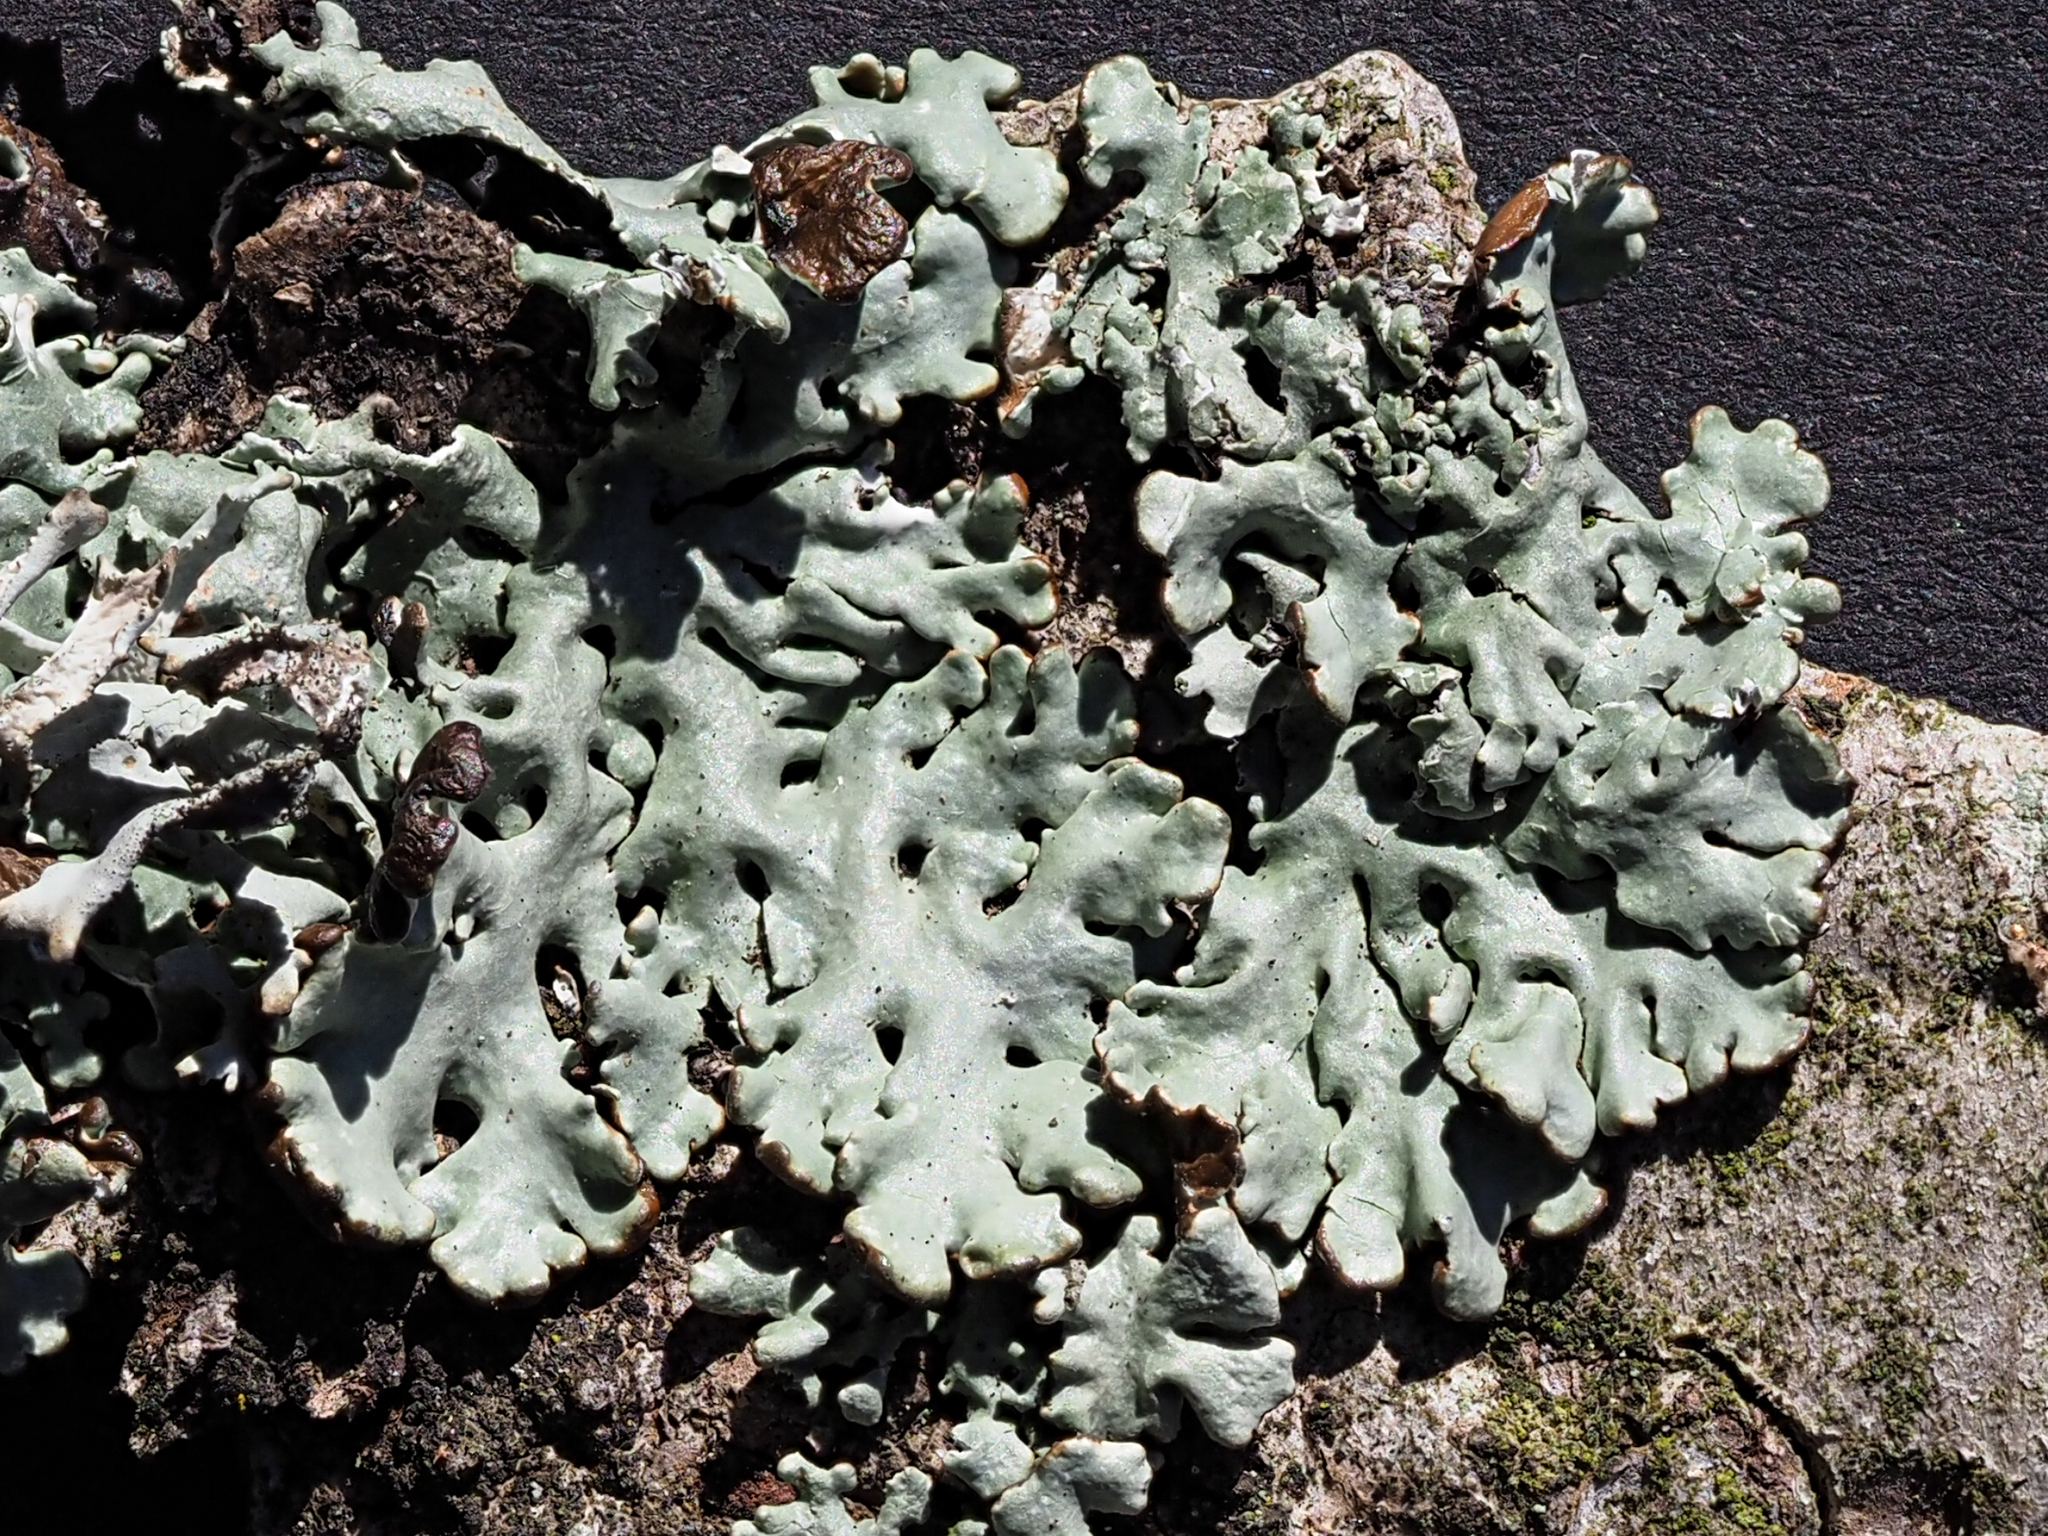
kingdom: Fungi
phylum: Ascomycota
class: Lecanoromycetes
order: Lecanorales
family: Parmeliaceae
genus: Hypogymnia
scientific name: Hypogymnia physodes
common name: Dark crottle
